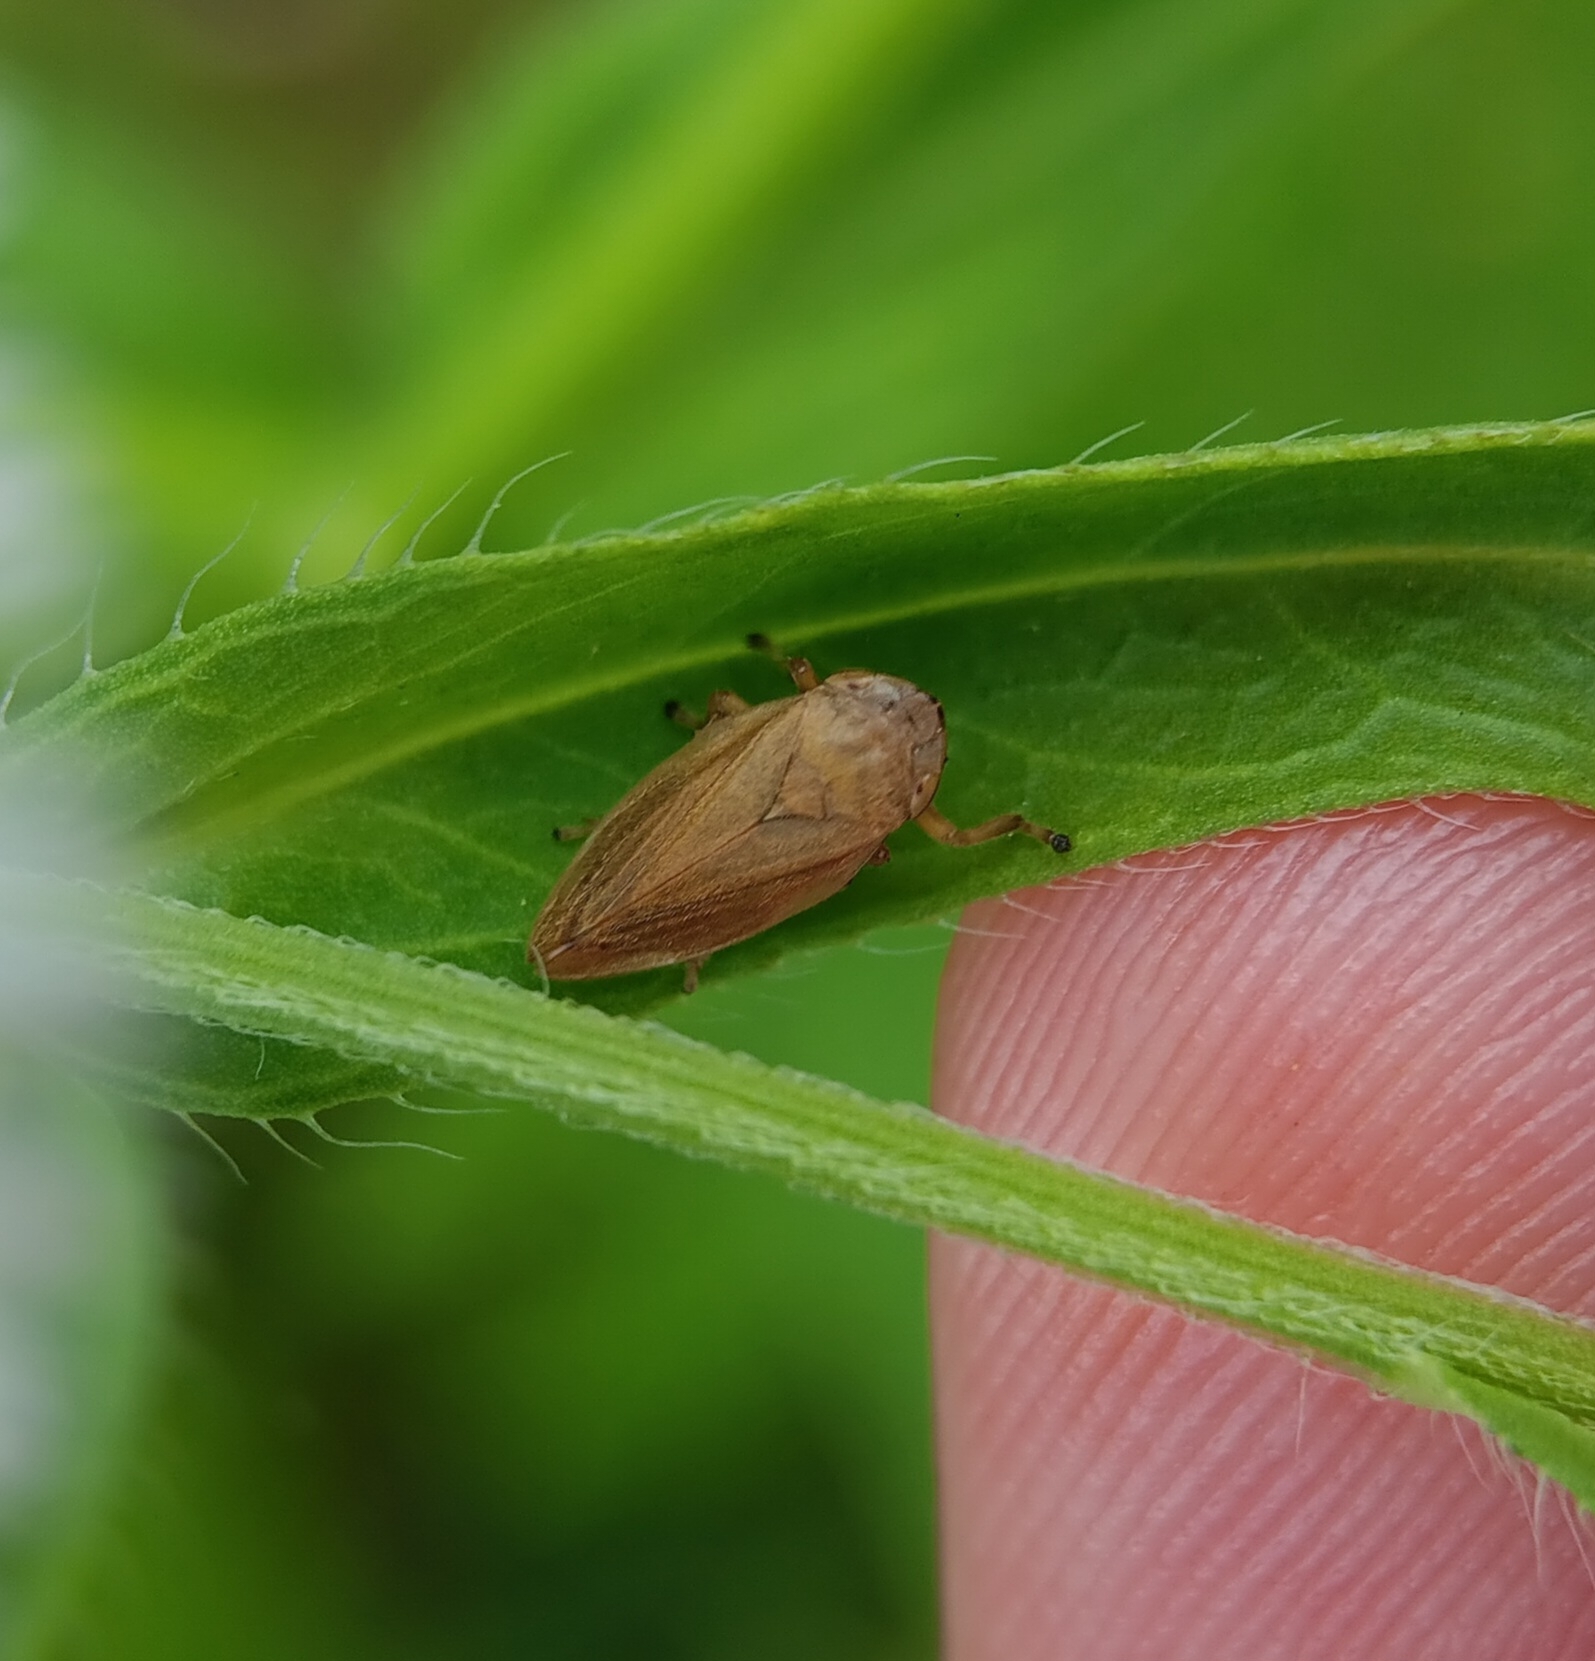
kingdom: Animalia
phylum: Arthropoda
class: Insecta
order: Hemiptera
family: Aphrophoridae
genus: Philaenus
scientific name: Philaenus spumarius
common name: Meadow spittlebug
